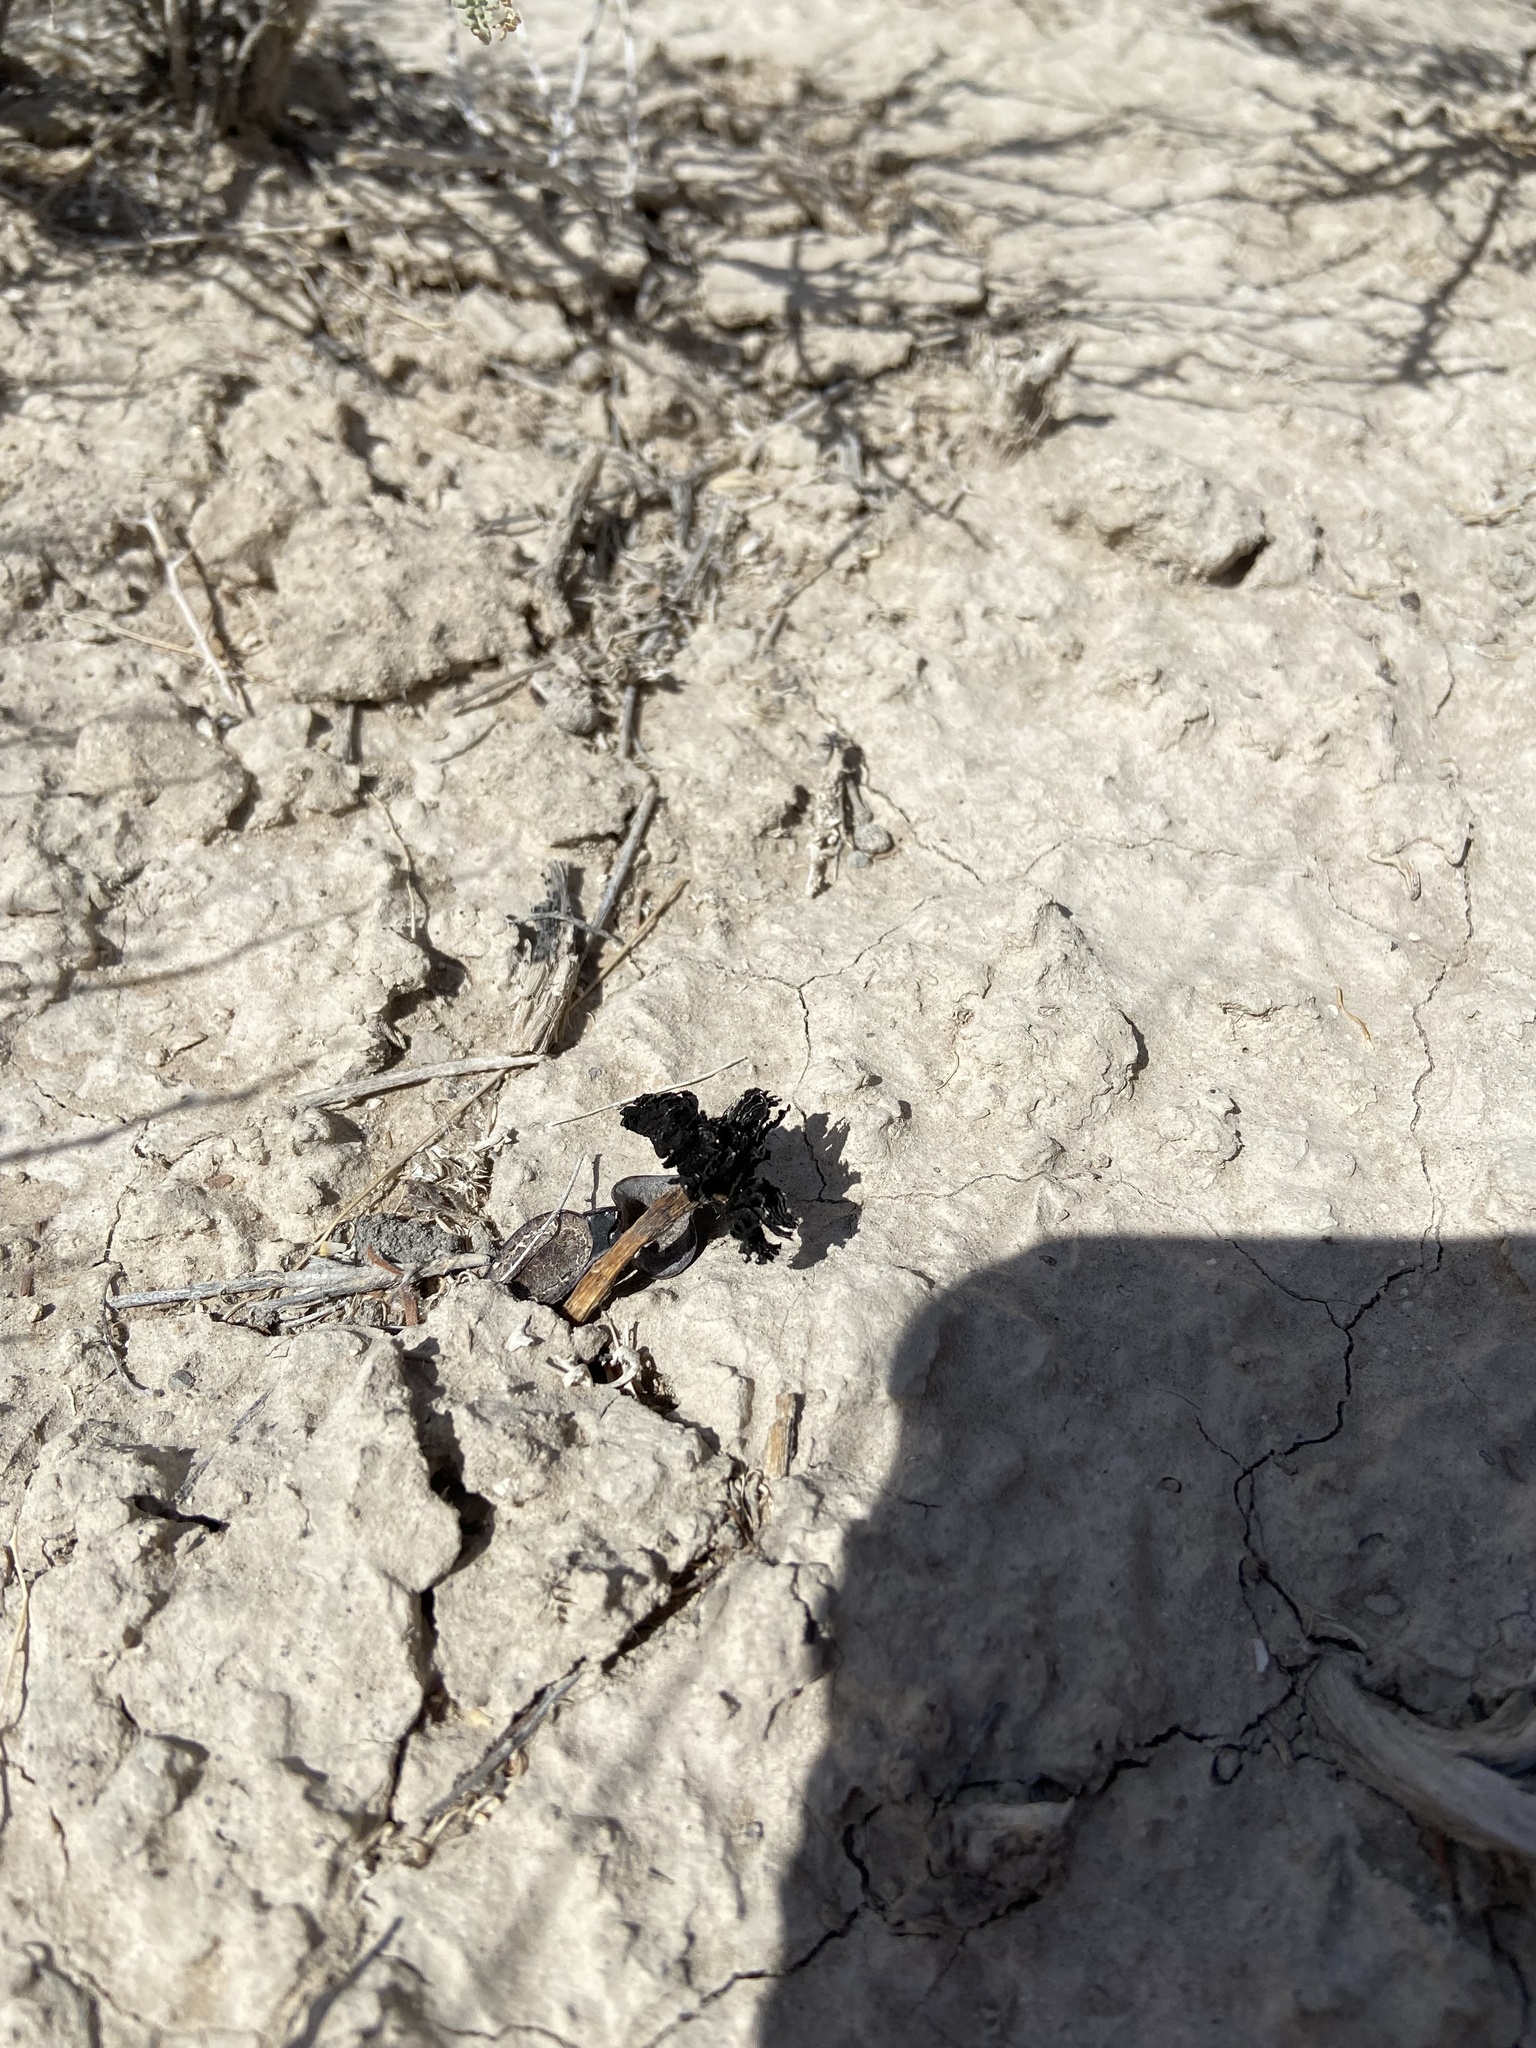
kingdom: Fungi
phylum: Basidiomycota
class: Agaricomycetes
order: Agaricales
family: Agaricaceae
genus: Montagnea
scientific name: Montagnea arenaria
